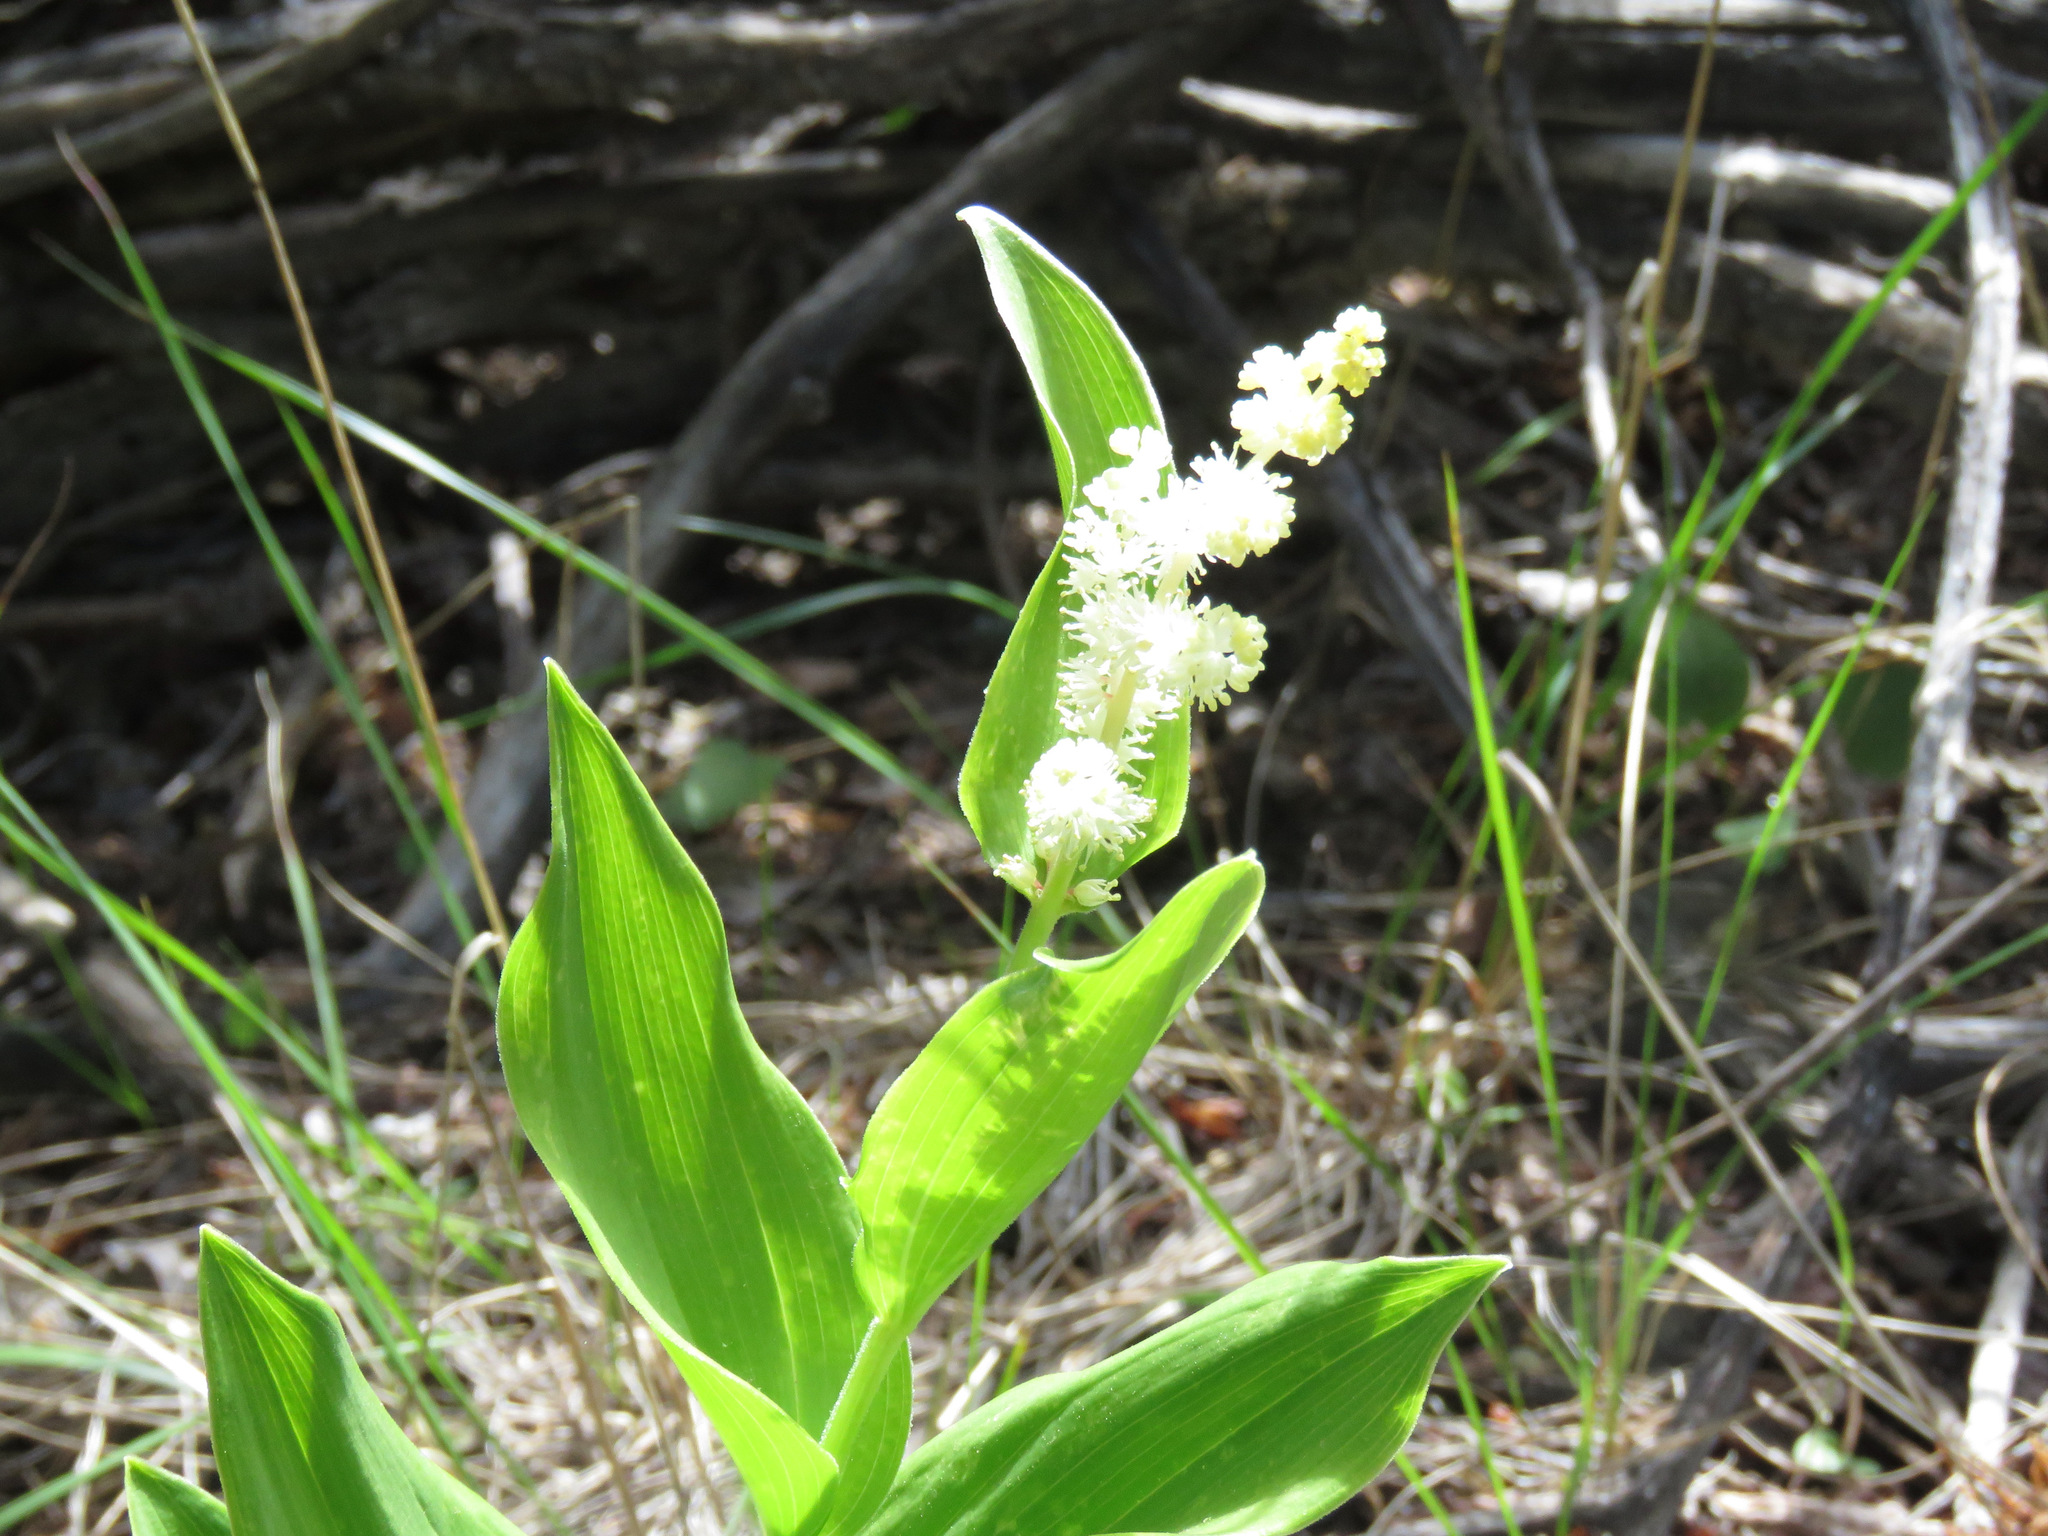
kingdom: Plantae
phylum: Tracheophyta
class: Liliopsida
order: Asparagales
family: Asparagaceae
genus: Maianthemum
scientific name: Maianthemum racemosum
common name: False spikenard
